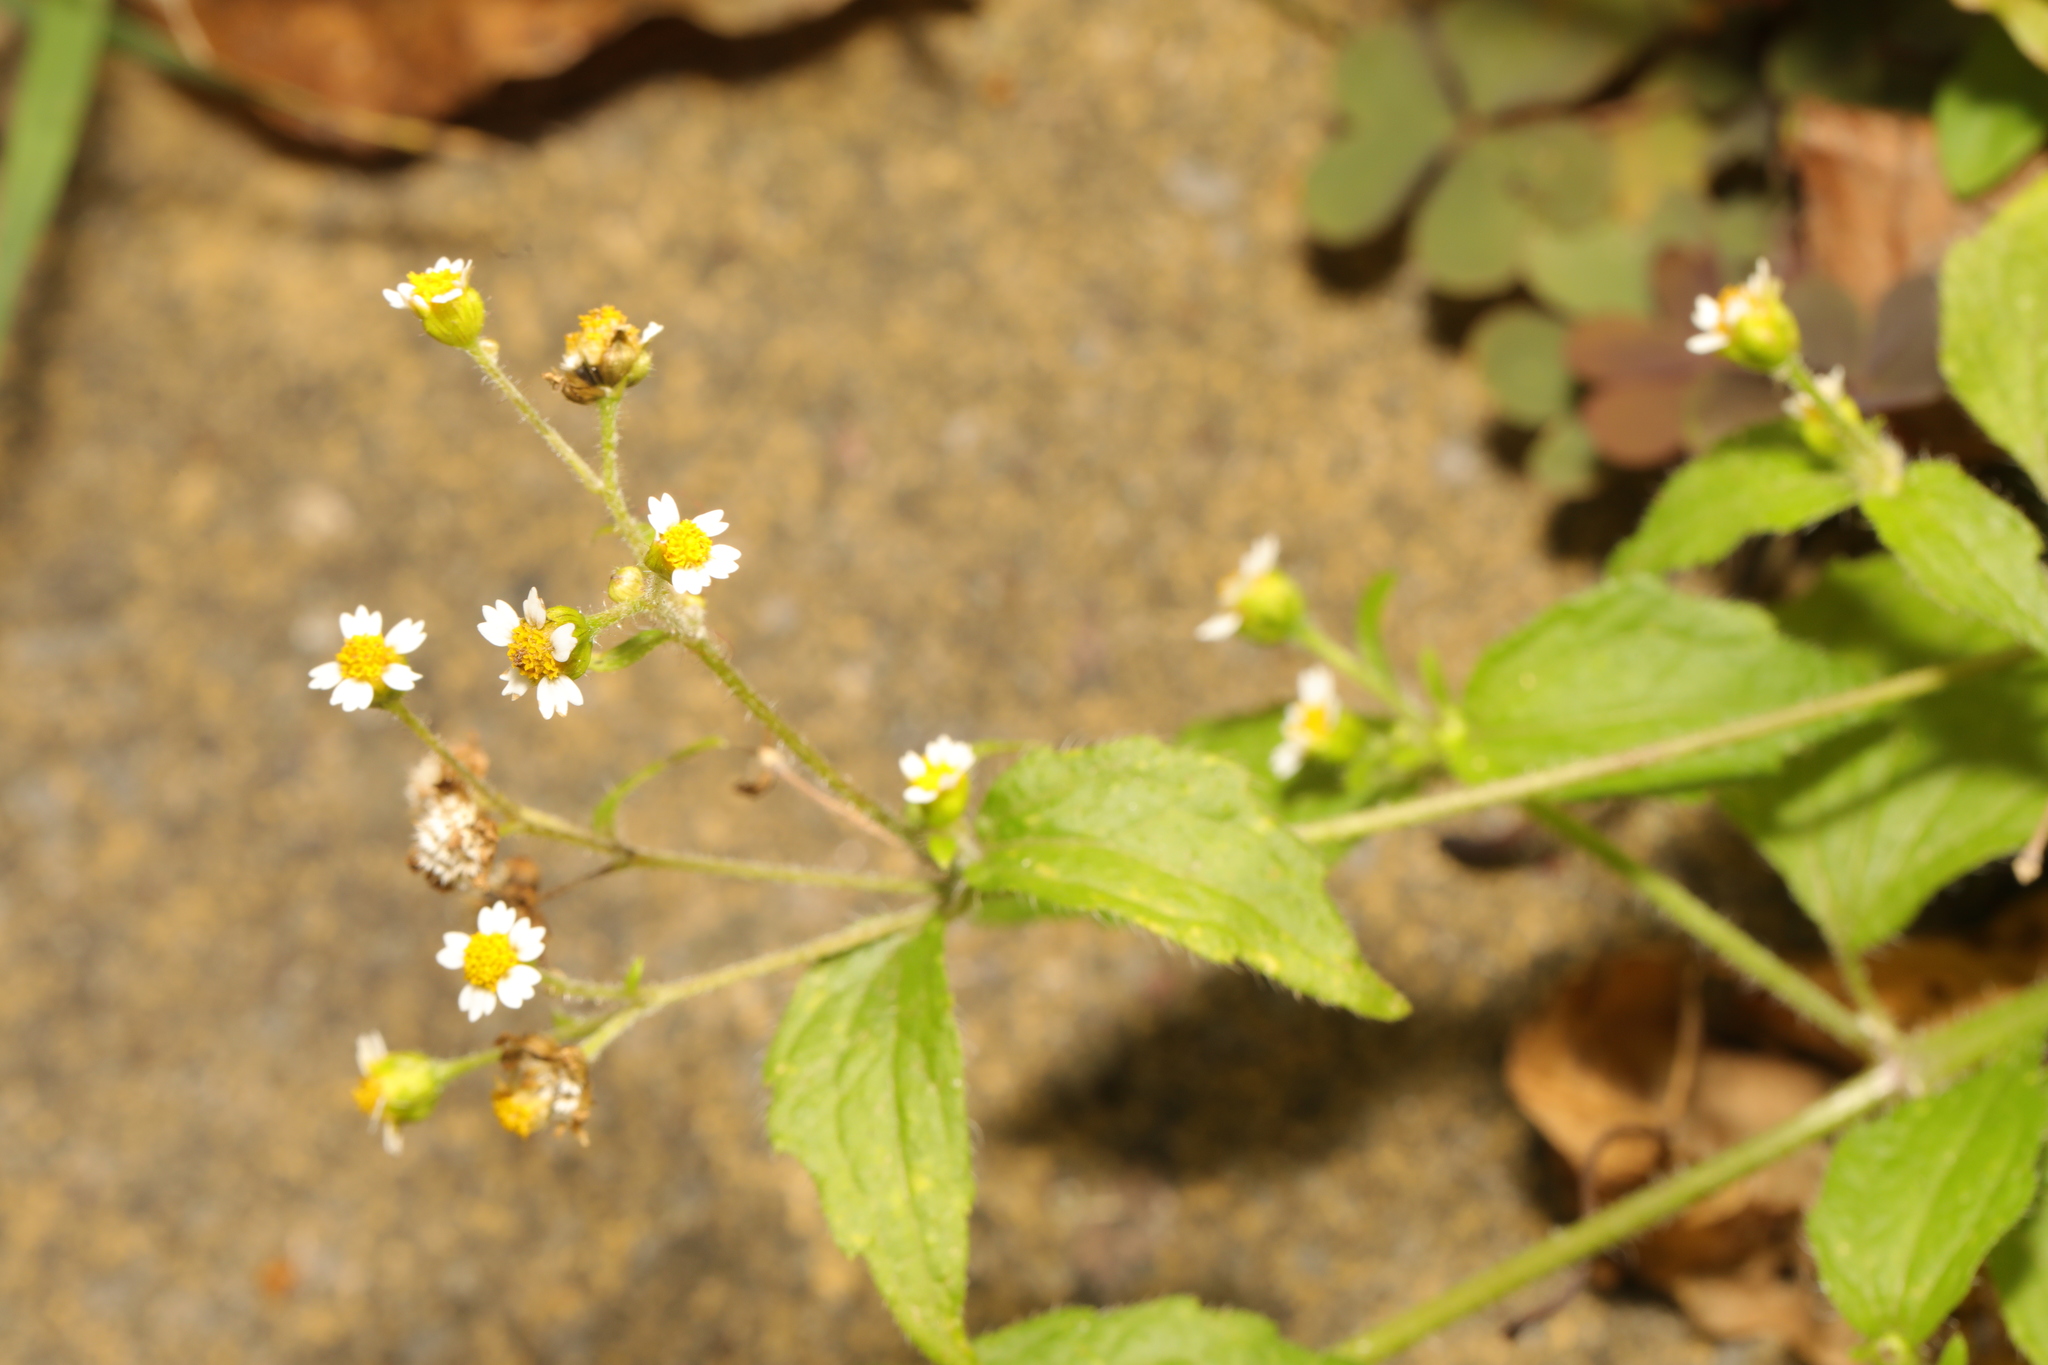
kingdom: Plantae
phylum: Tracheophyta
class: Magnoliopsida
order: Asterales
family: Asteraceae
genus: Galinsoga
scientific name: Galinsoga quadriradiata
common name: Shaggy soldier
